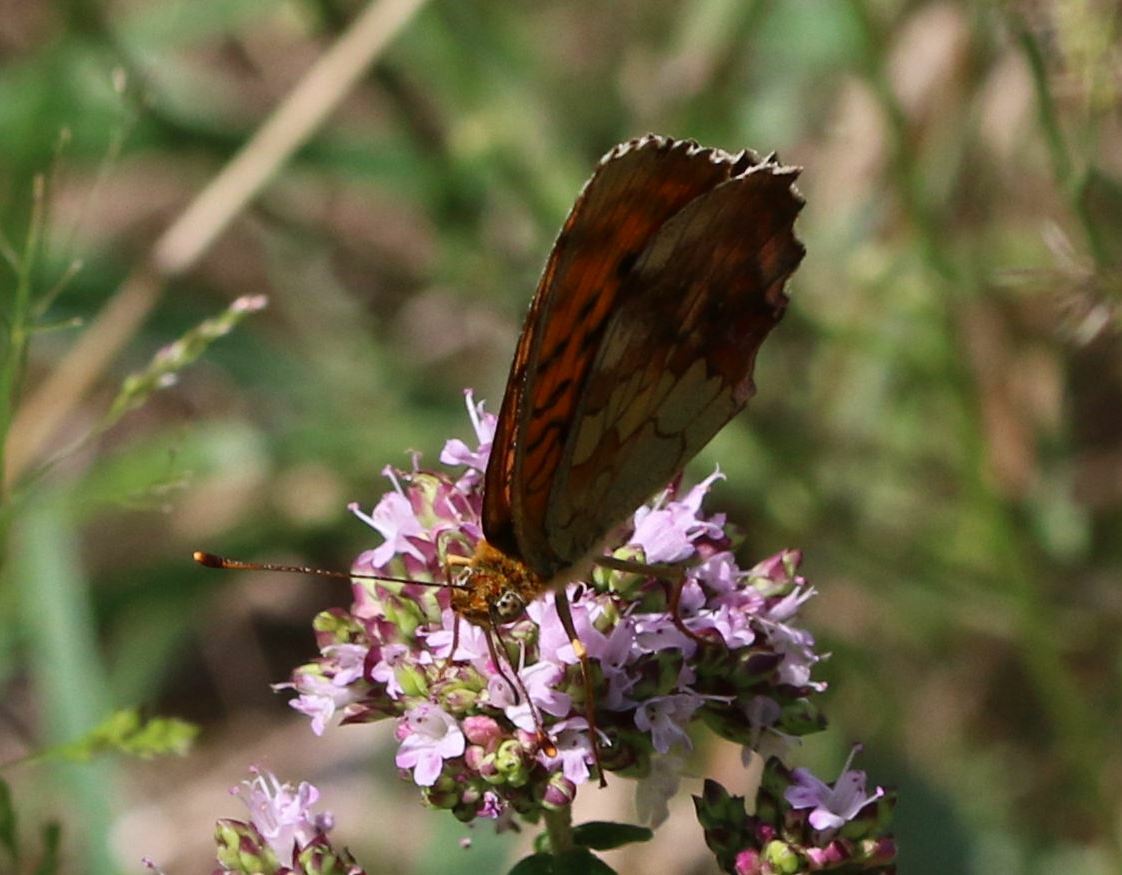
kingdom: Animalia
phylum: Arthropoda
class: Insecta
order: Lepidoptera
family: Nymphalidae
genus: Brenthis
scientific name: Brenthis daphne
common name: Marbled fritillary
